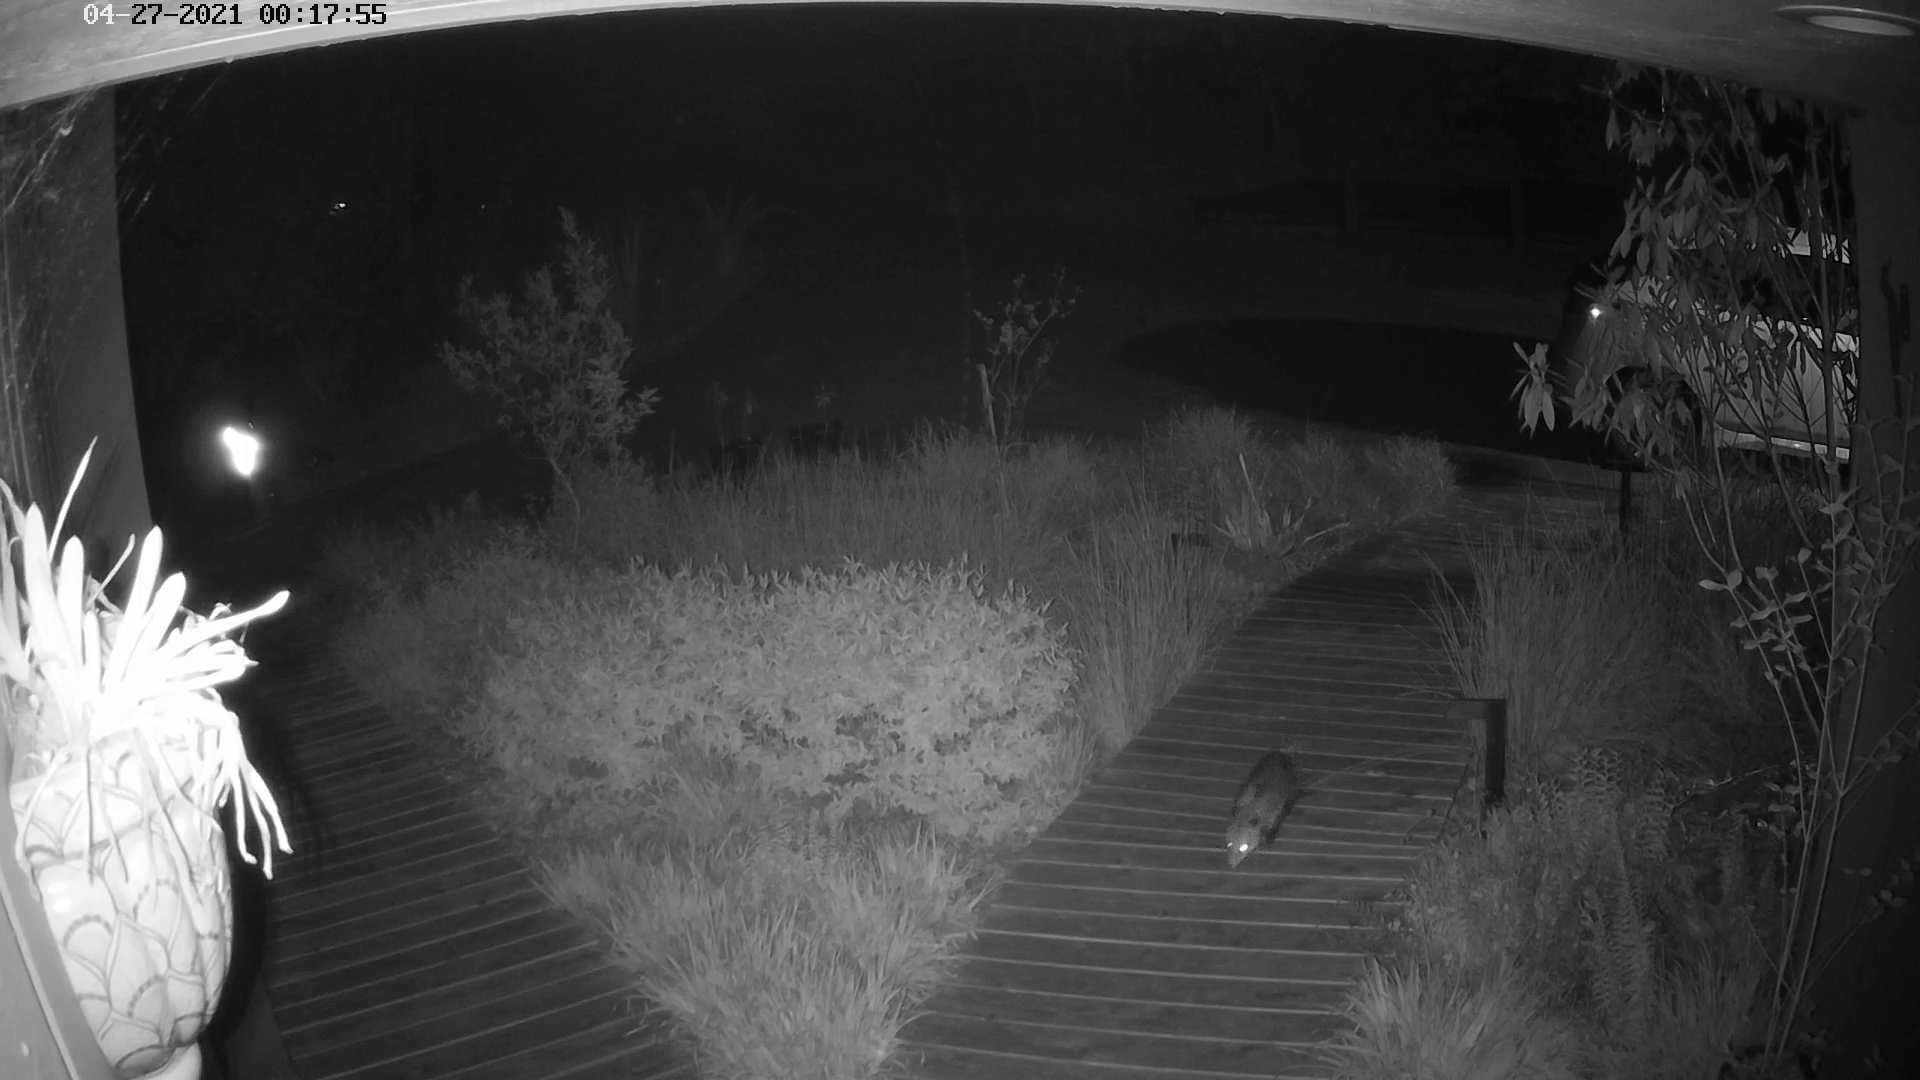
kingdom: Animalia
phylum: Chordata
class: Mammalia
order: Didelphimorphia
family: Didelphidae
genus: Didelphis
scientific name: Didelphis virginiana
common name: Virginia opossum
